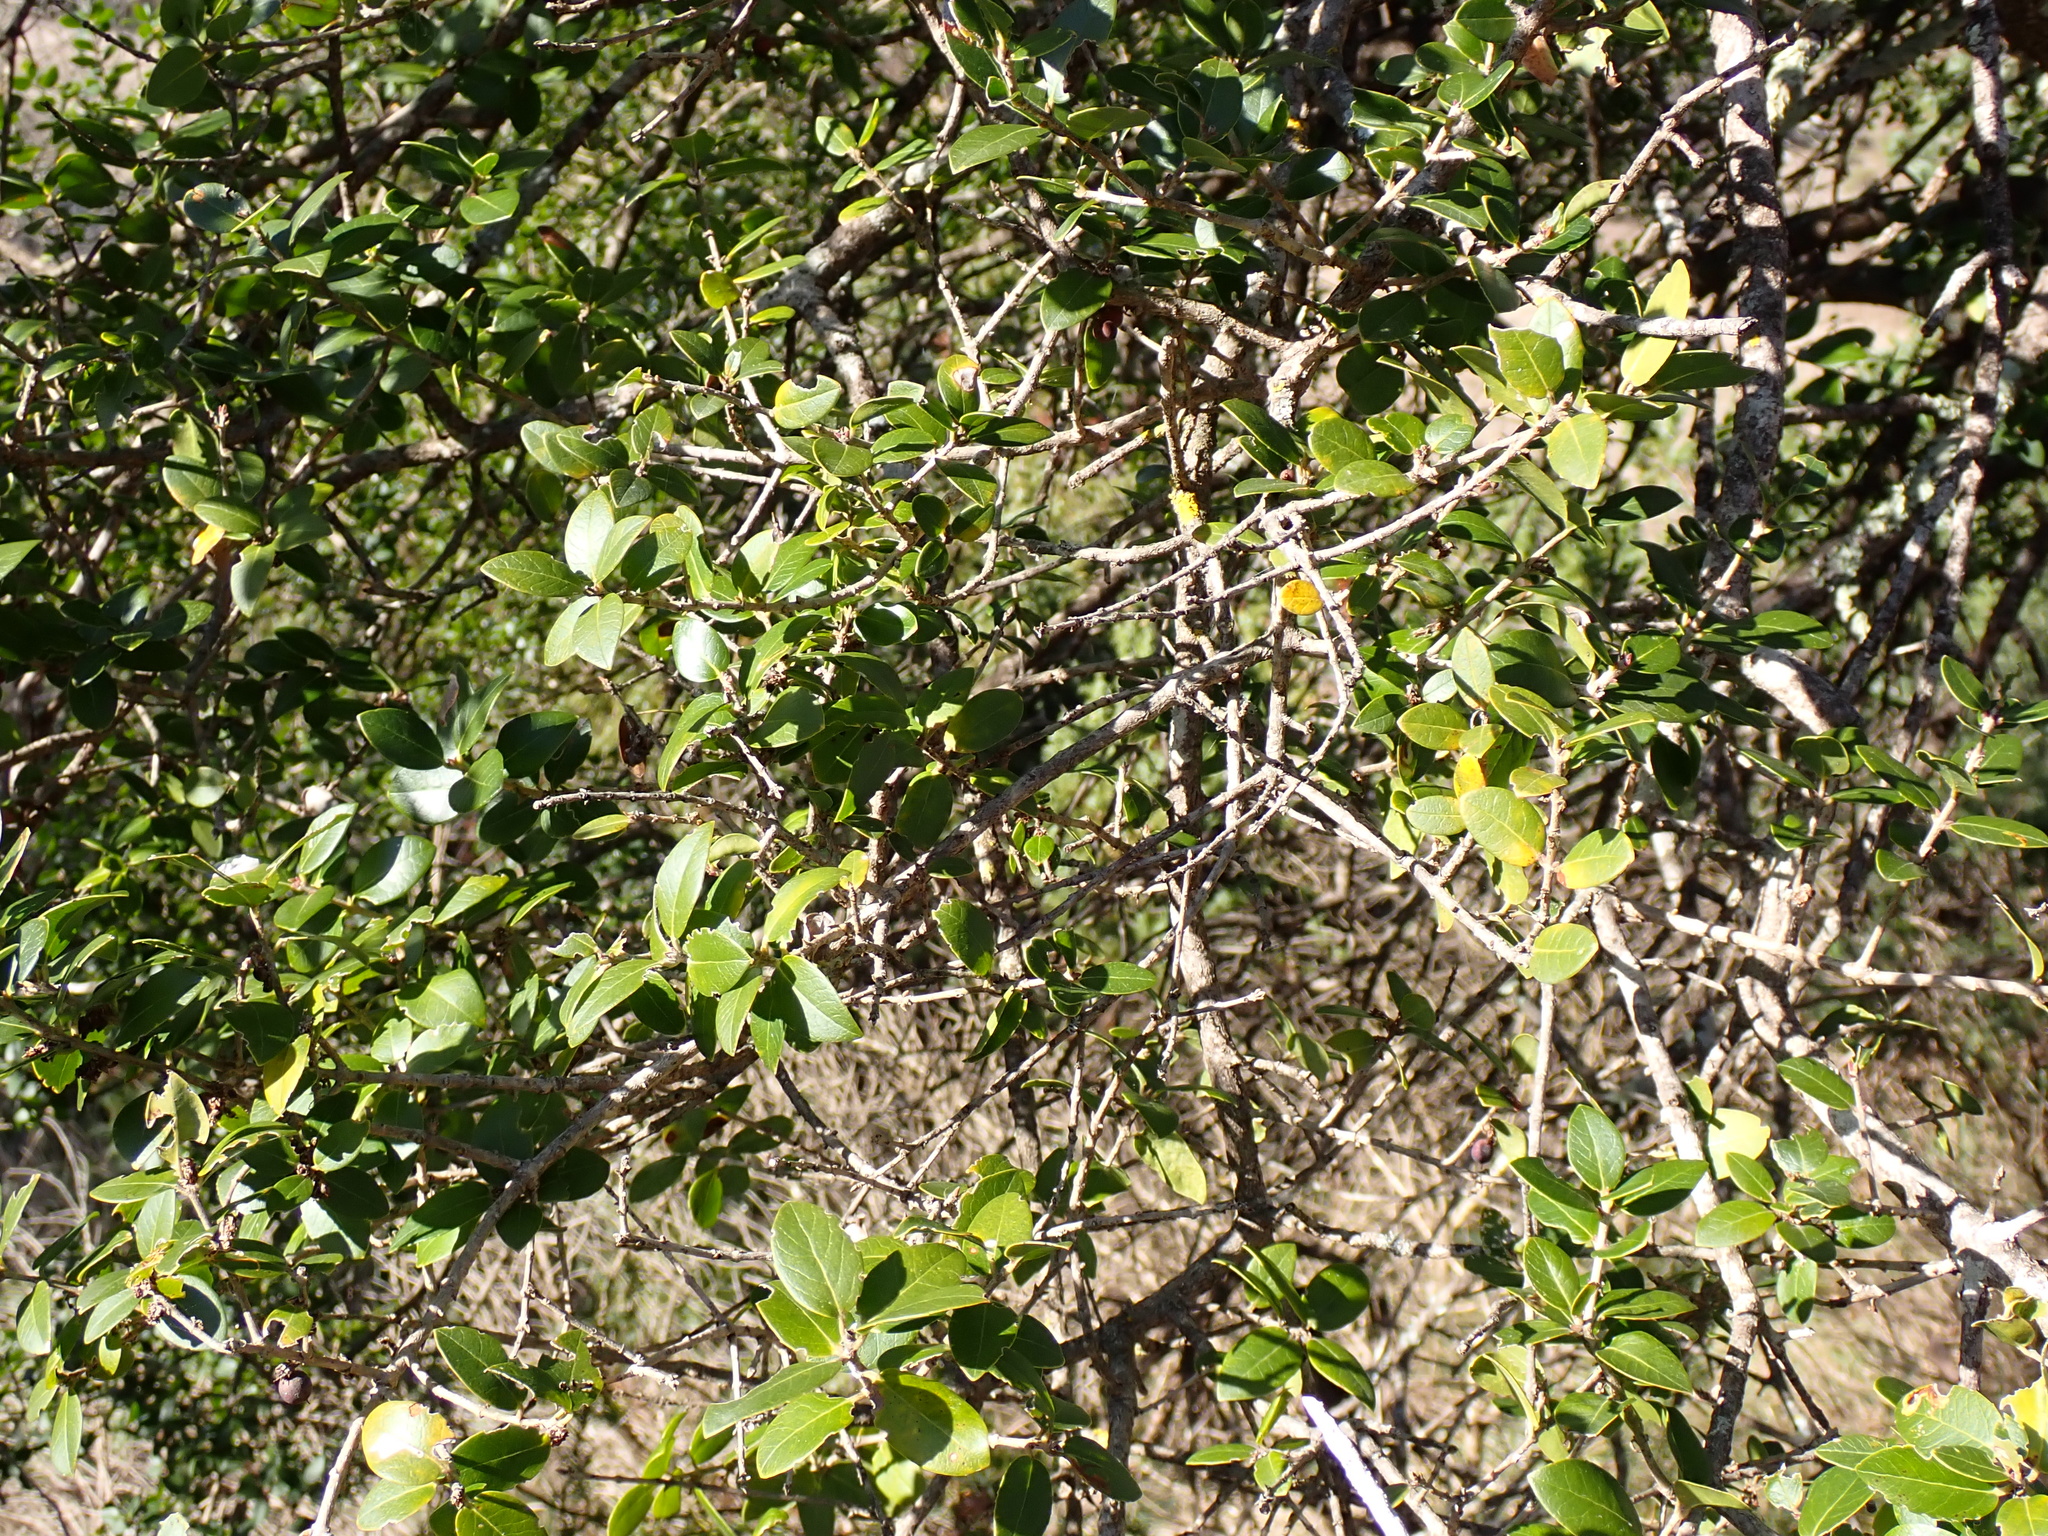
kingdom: Plantae
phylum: Tracheophyta
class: Magnoliopsida
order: Lamiales
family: Oleaceae
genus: Phillyrea
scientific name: Phillyrea latifolia
